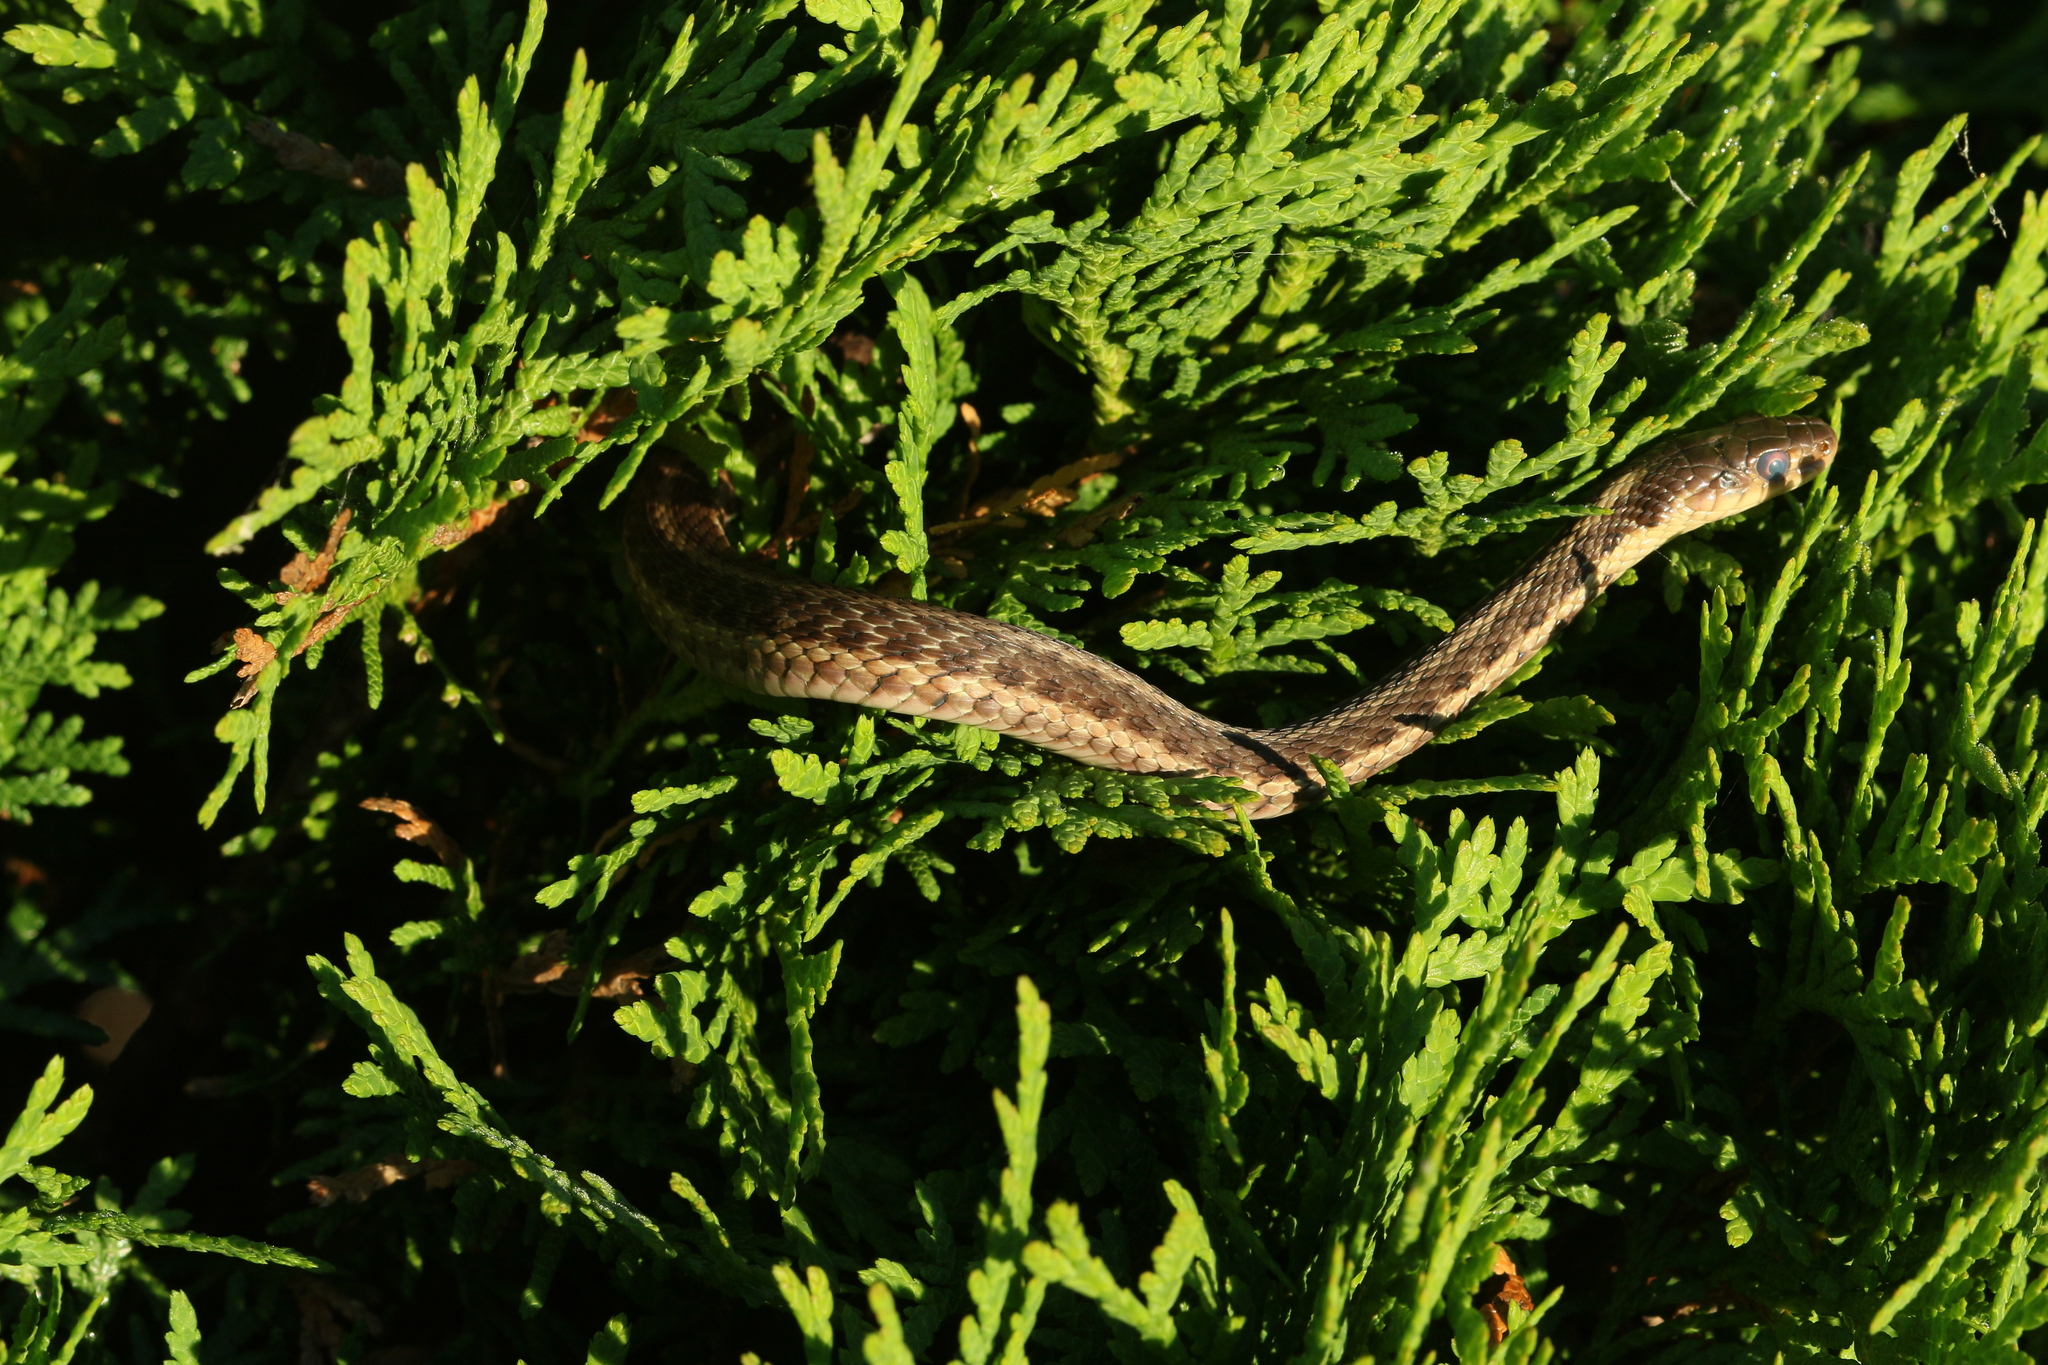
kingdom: Animalia
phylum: Chordata
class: Squamata
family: Colubridae
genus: Thamnophis
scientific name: Thamnophis sirtalis
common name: Common garter snake
